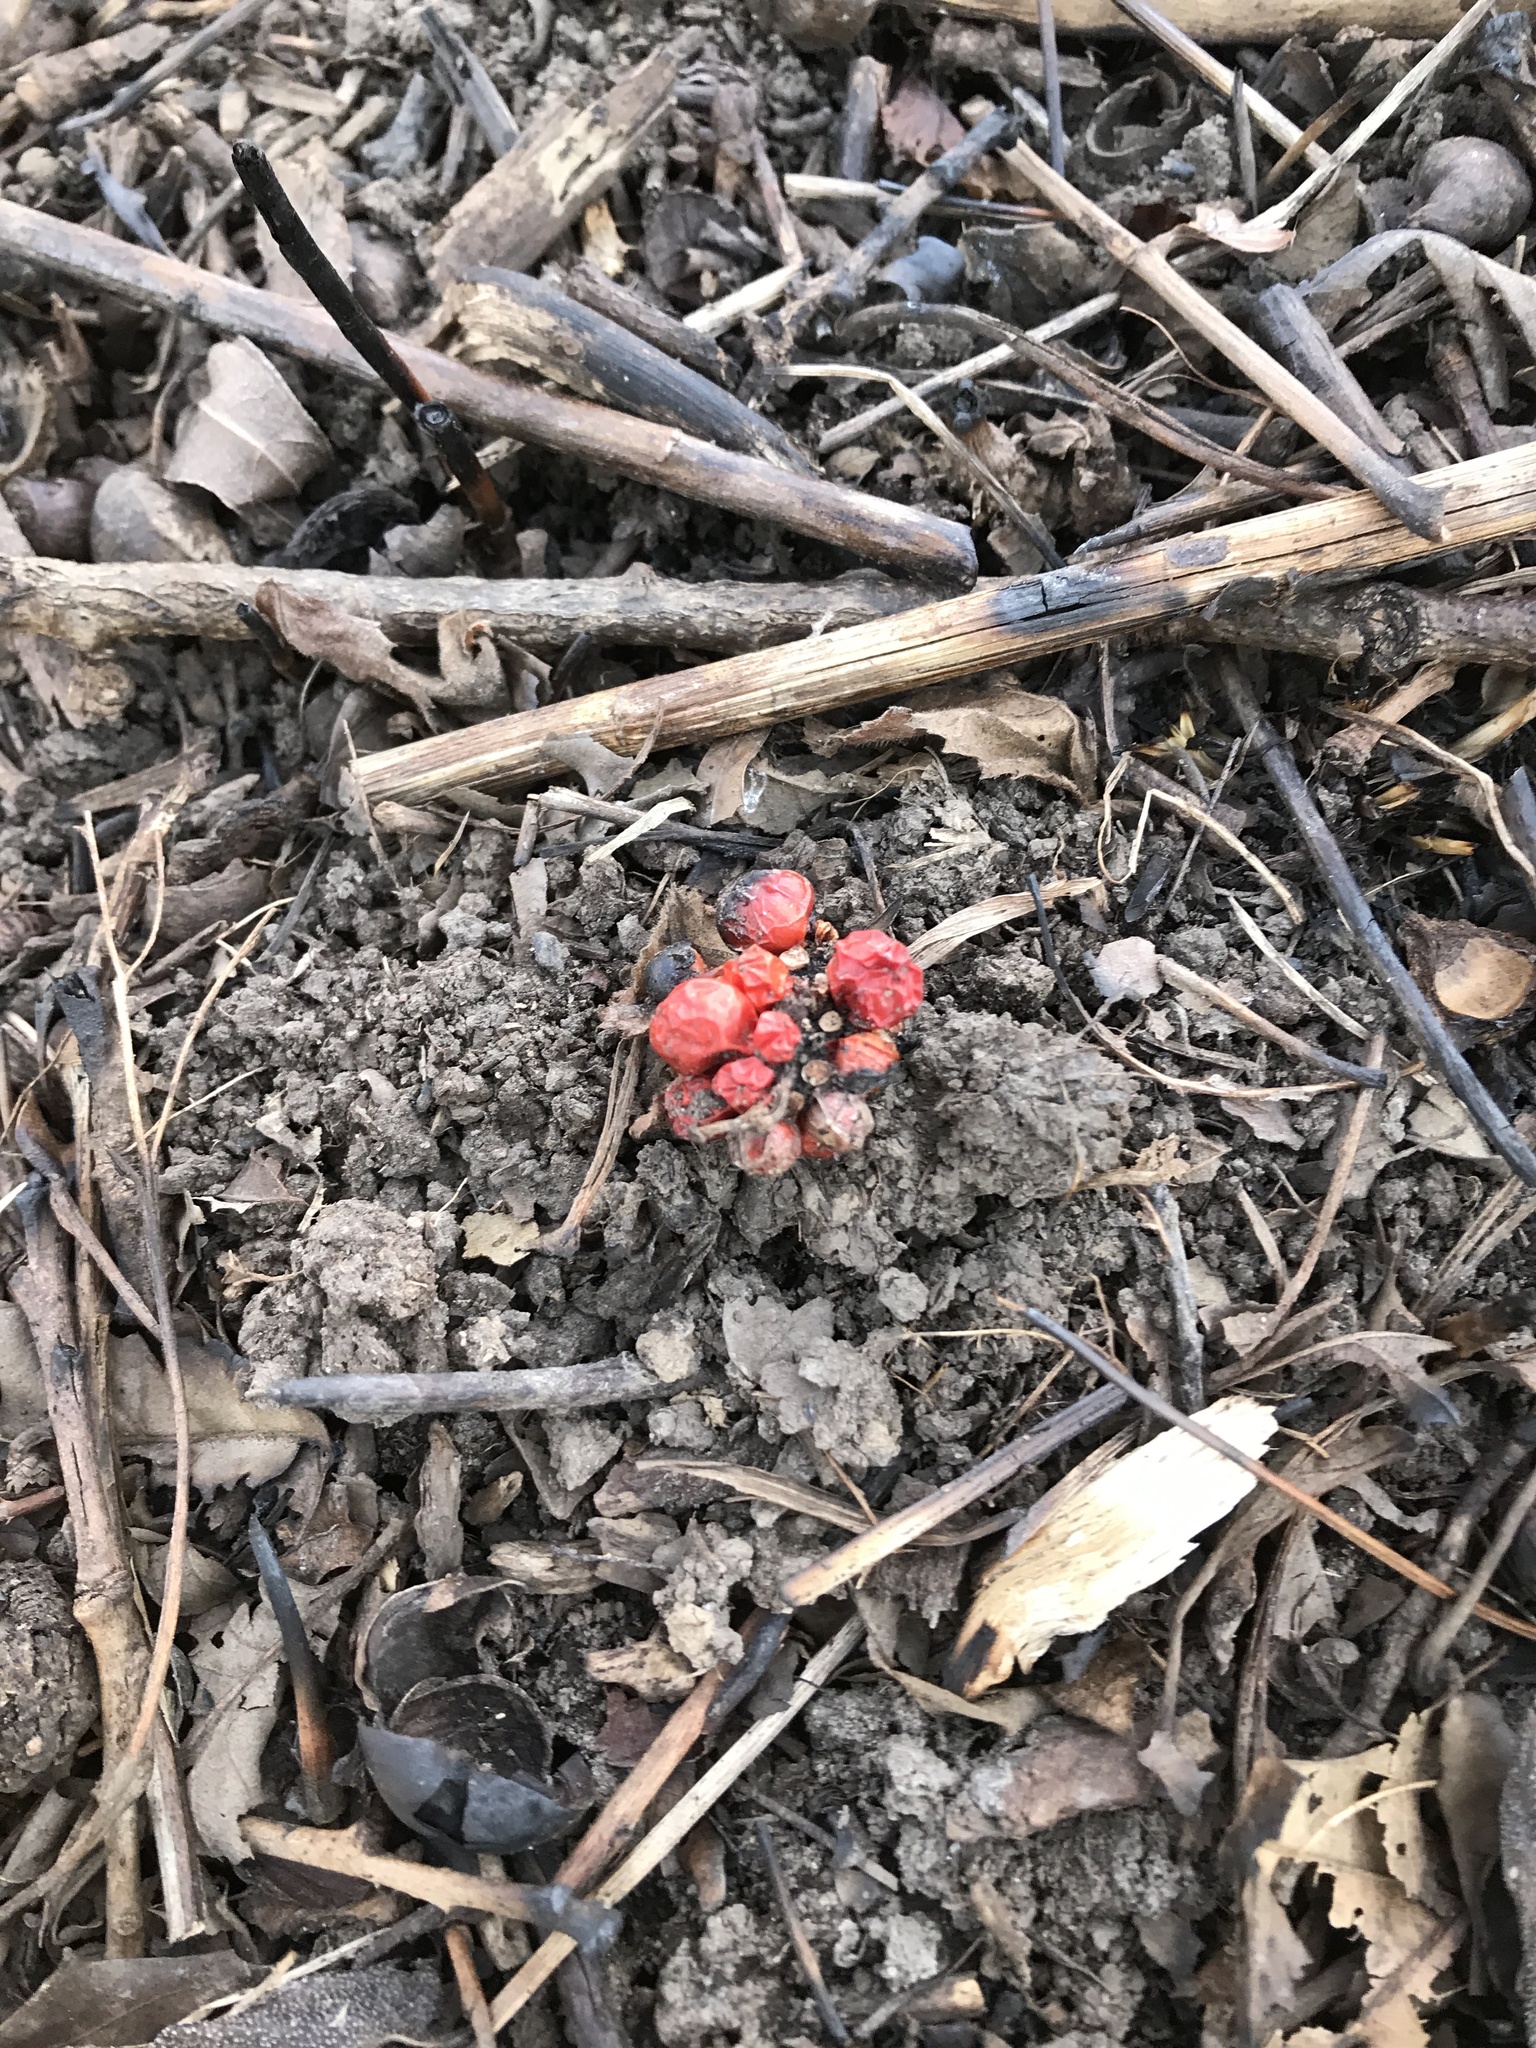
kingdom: Plantae
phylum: Tracheophyta
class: Liliopsida
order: Alismatales
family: Araceae
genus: Arisaema
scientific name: Arisaema triphyllum
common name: Jack-in-the-pulpit
